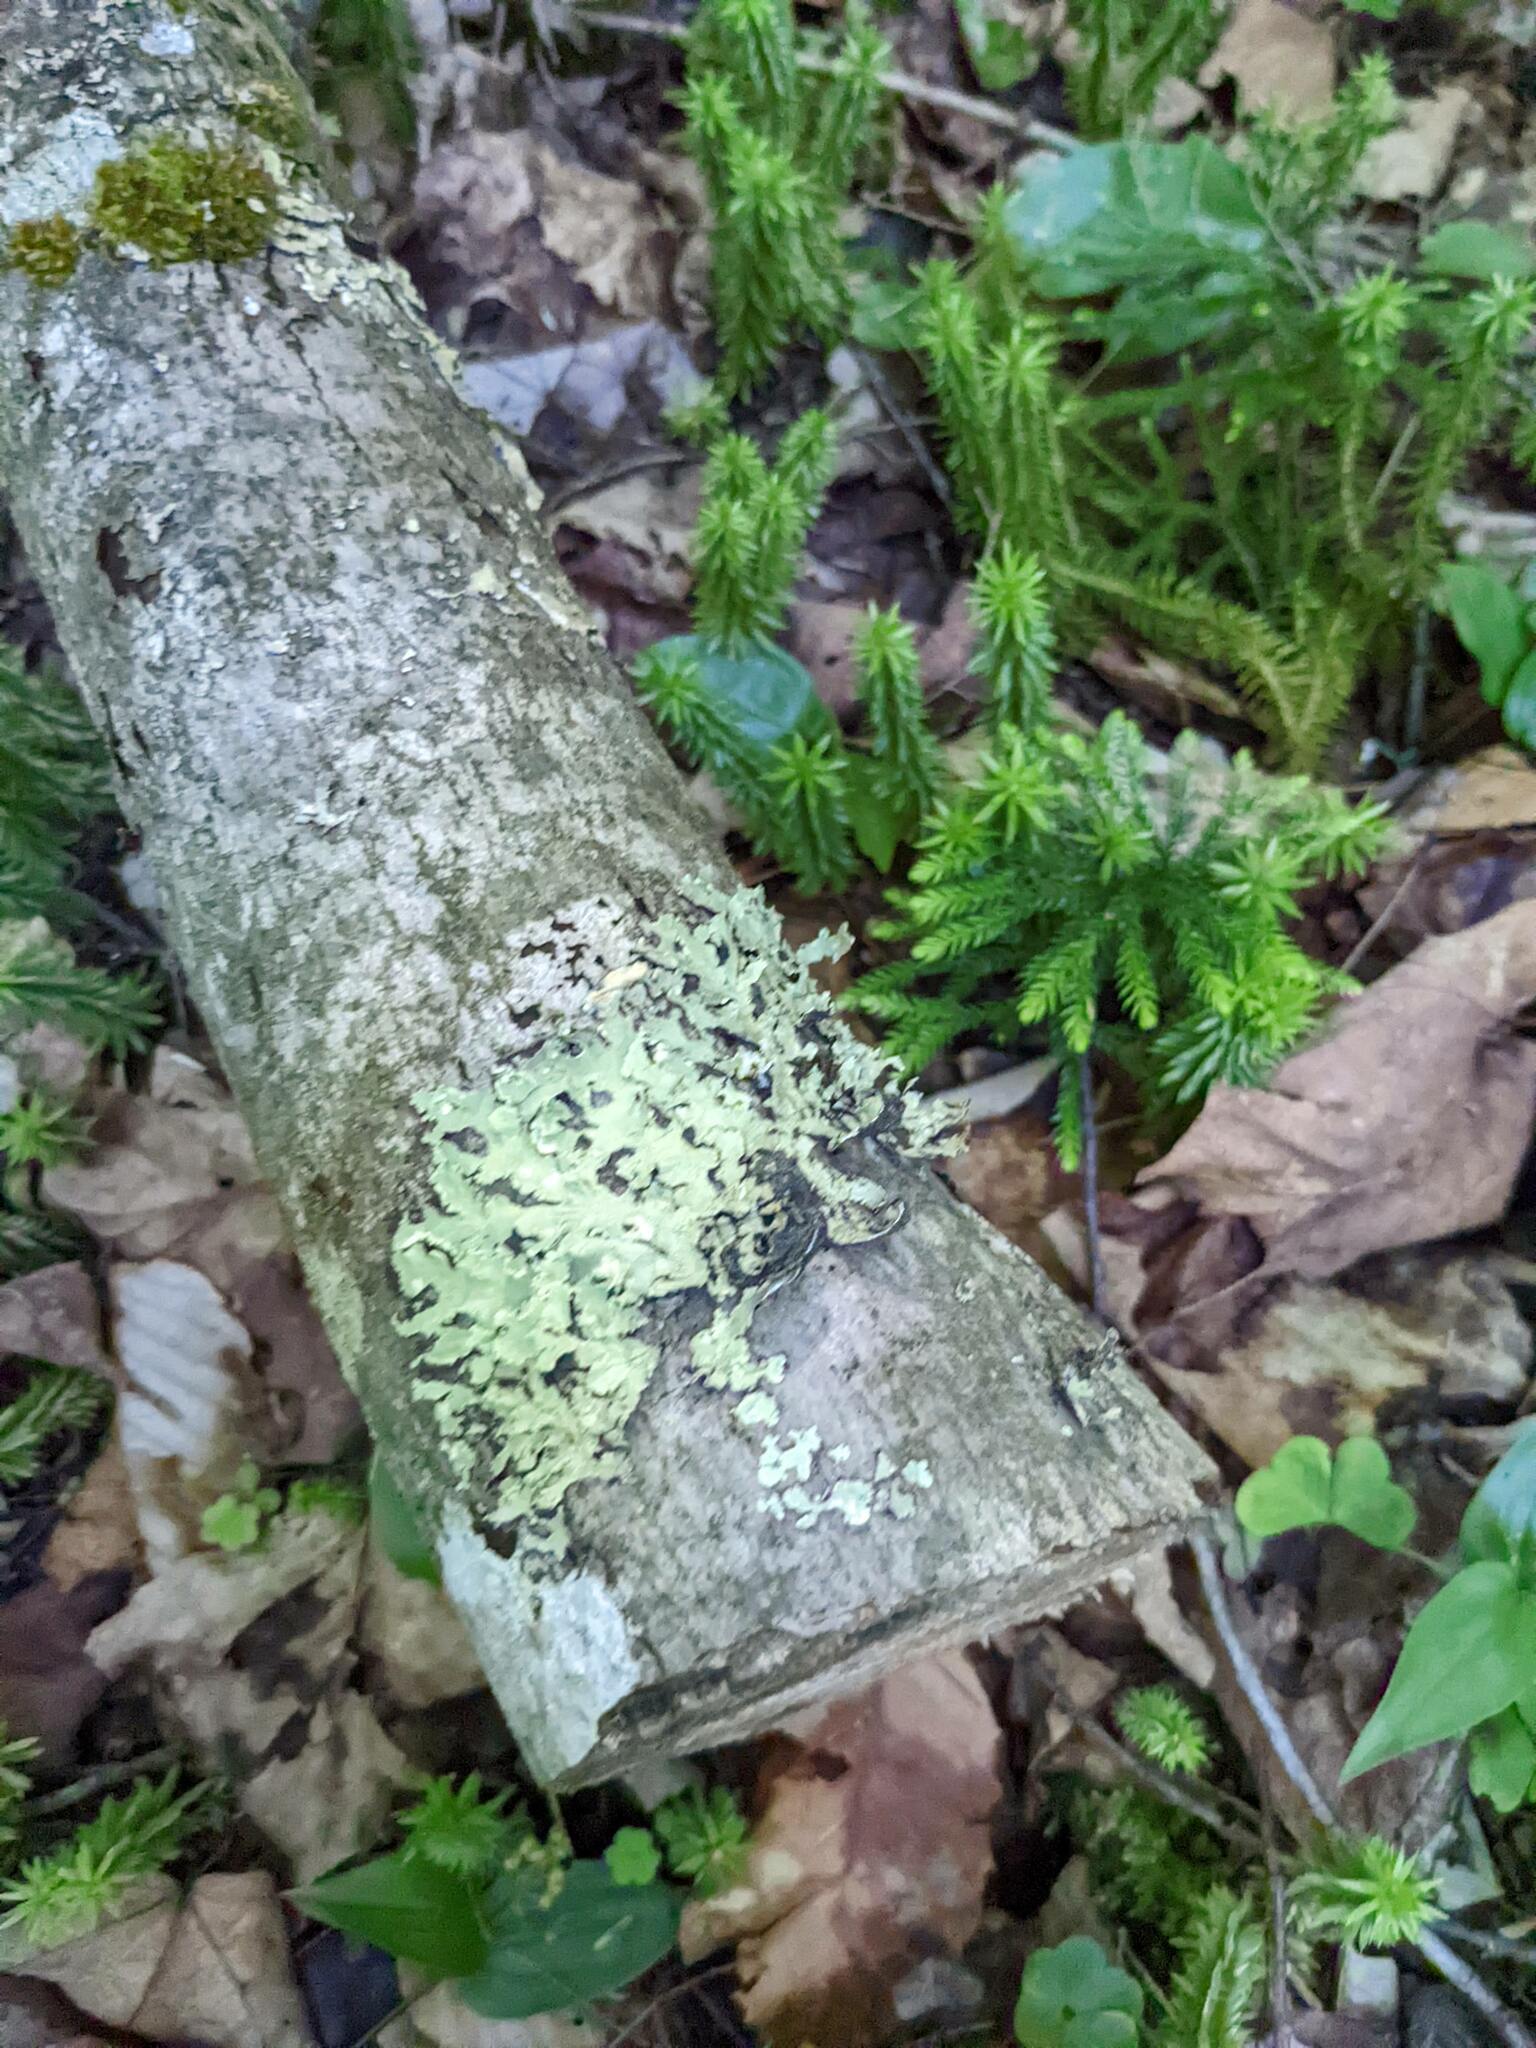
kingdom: Fungi
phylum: Ascomycota
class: Lecanoromycetes
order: Lecanorales
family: Parmeliaceae
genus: Flavoparmelia
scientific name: Flavoparmelia caperata
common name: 40-mile per hour lichen
